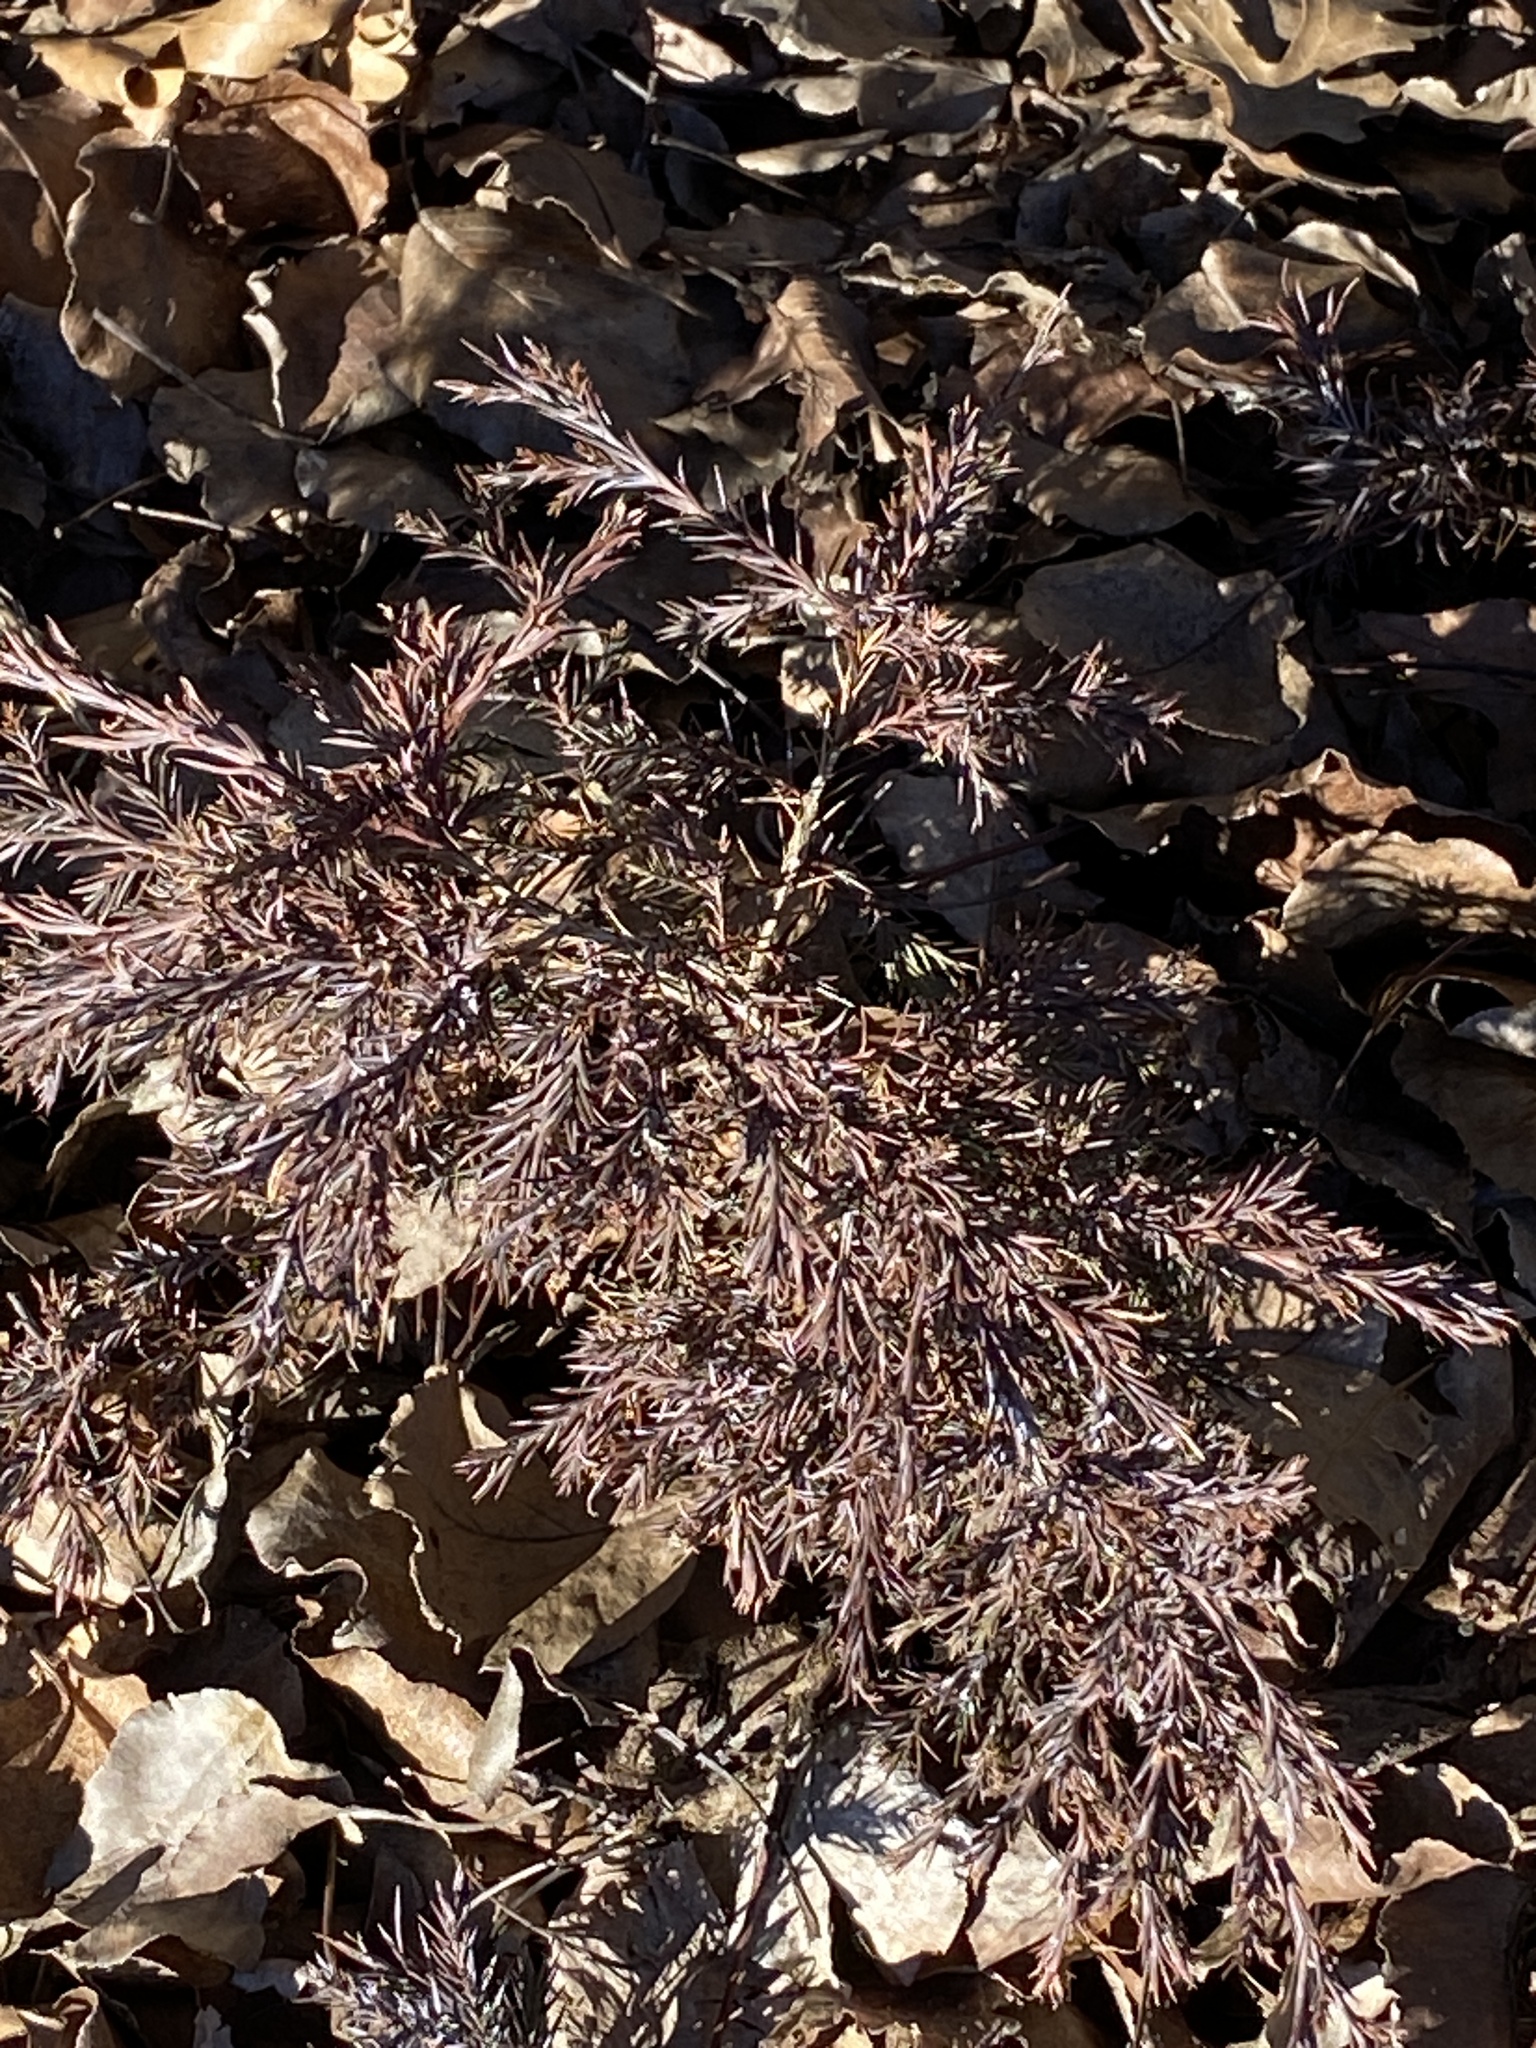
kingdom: Plantae
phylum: Tracheophyta
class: Pinopsida
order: Pinales
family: Cupressaceae
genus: Juniperus
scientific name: Juniperus virginiana
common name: Red juniper
